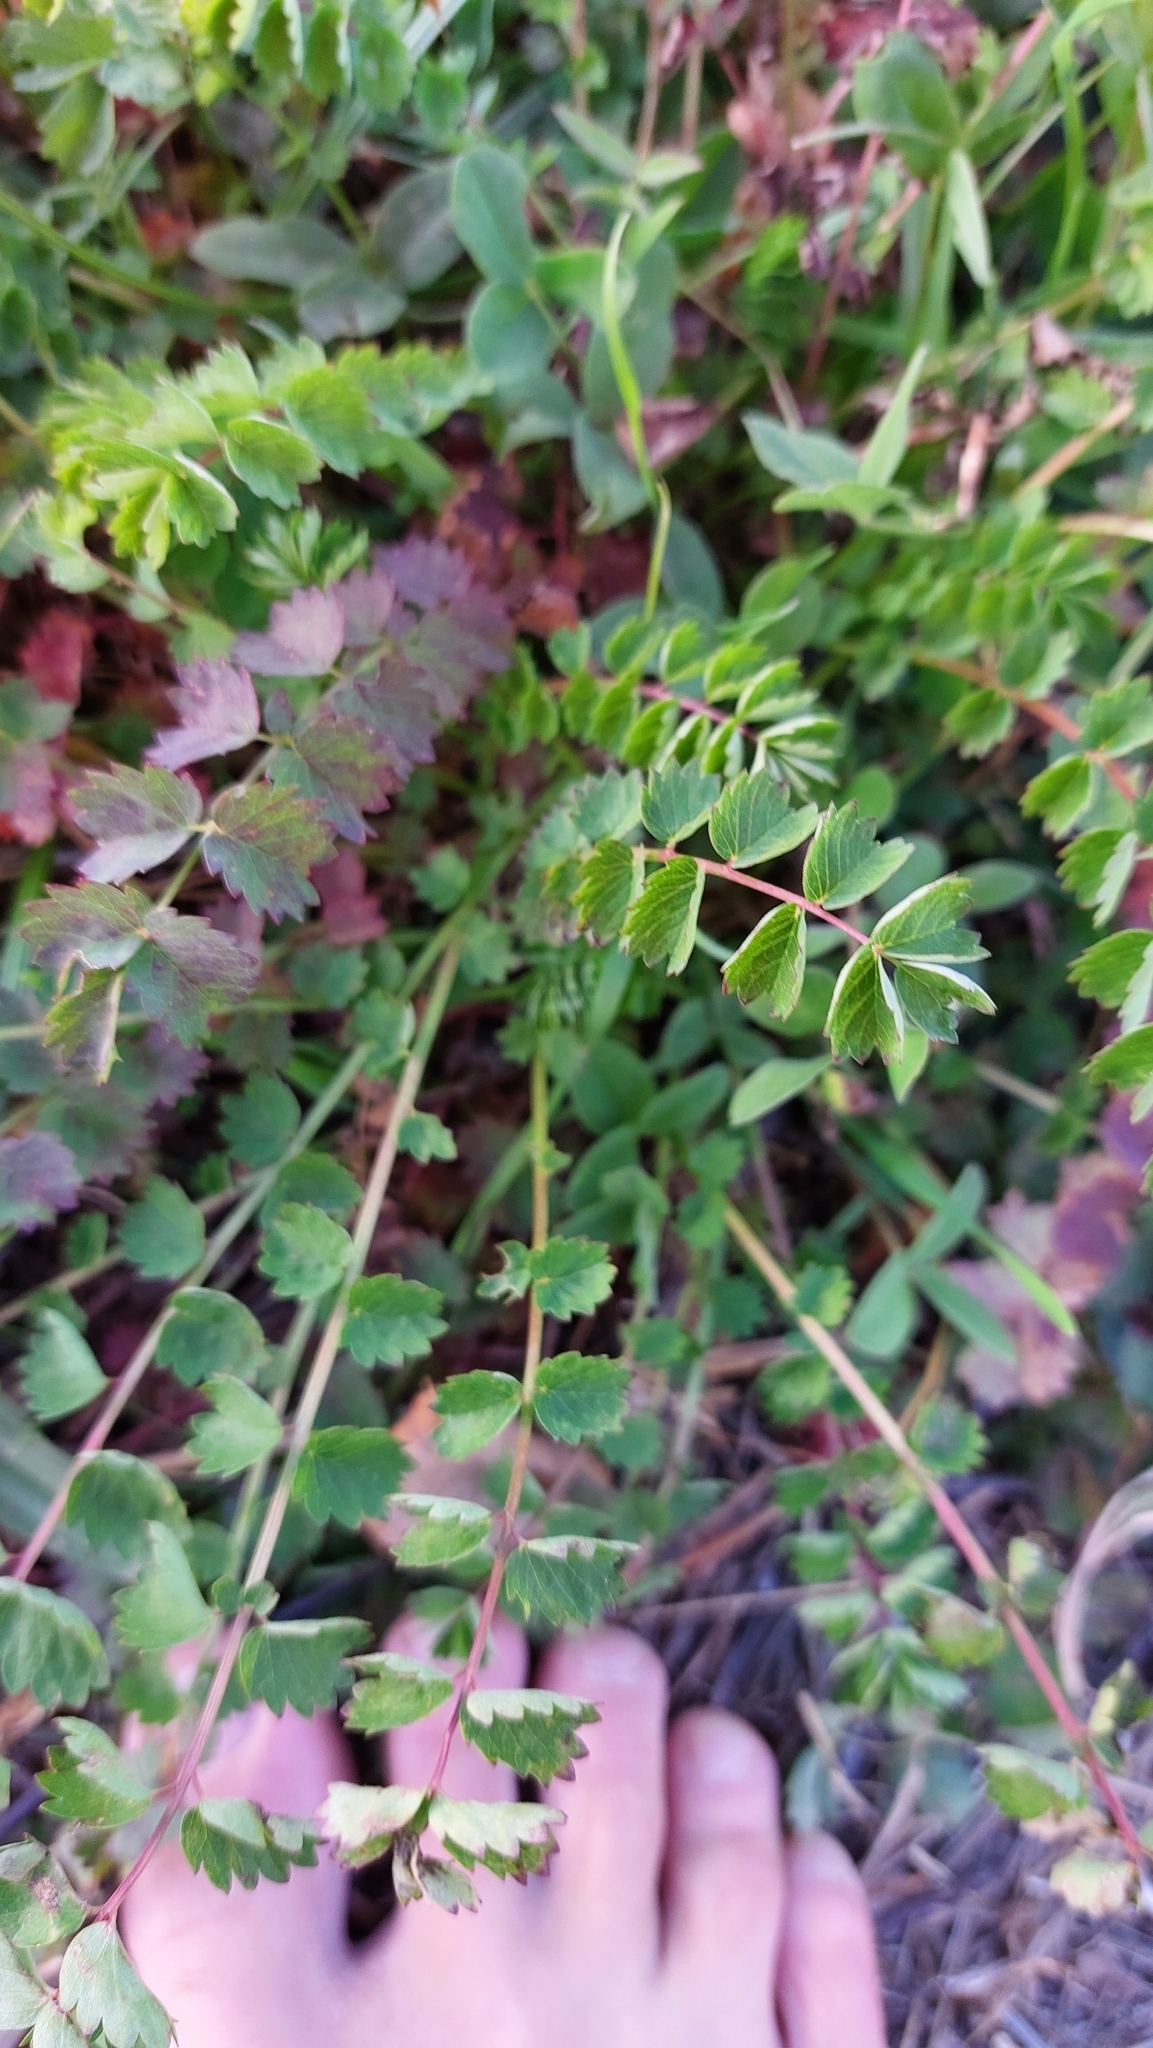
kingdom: Plantae
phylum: Tracheophyta
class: Magnoliopsida
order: Rosales
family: Rosaceae
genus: Poterium
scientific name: Poterium sanguisorba
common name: Salad burnet
